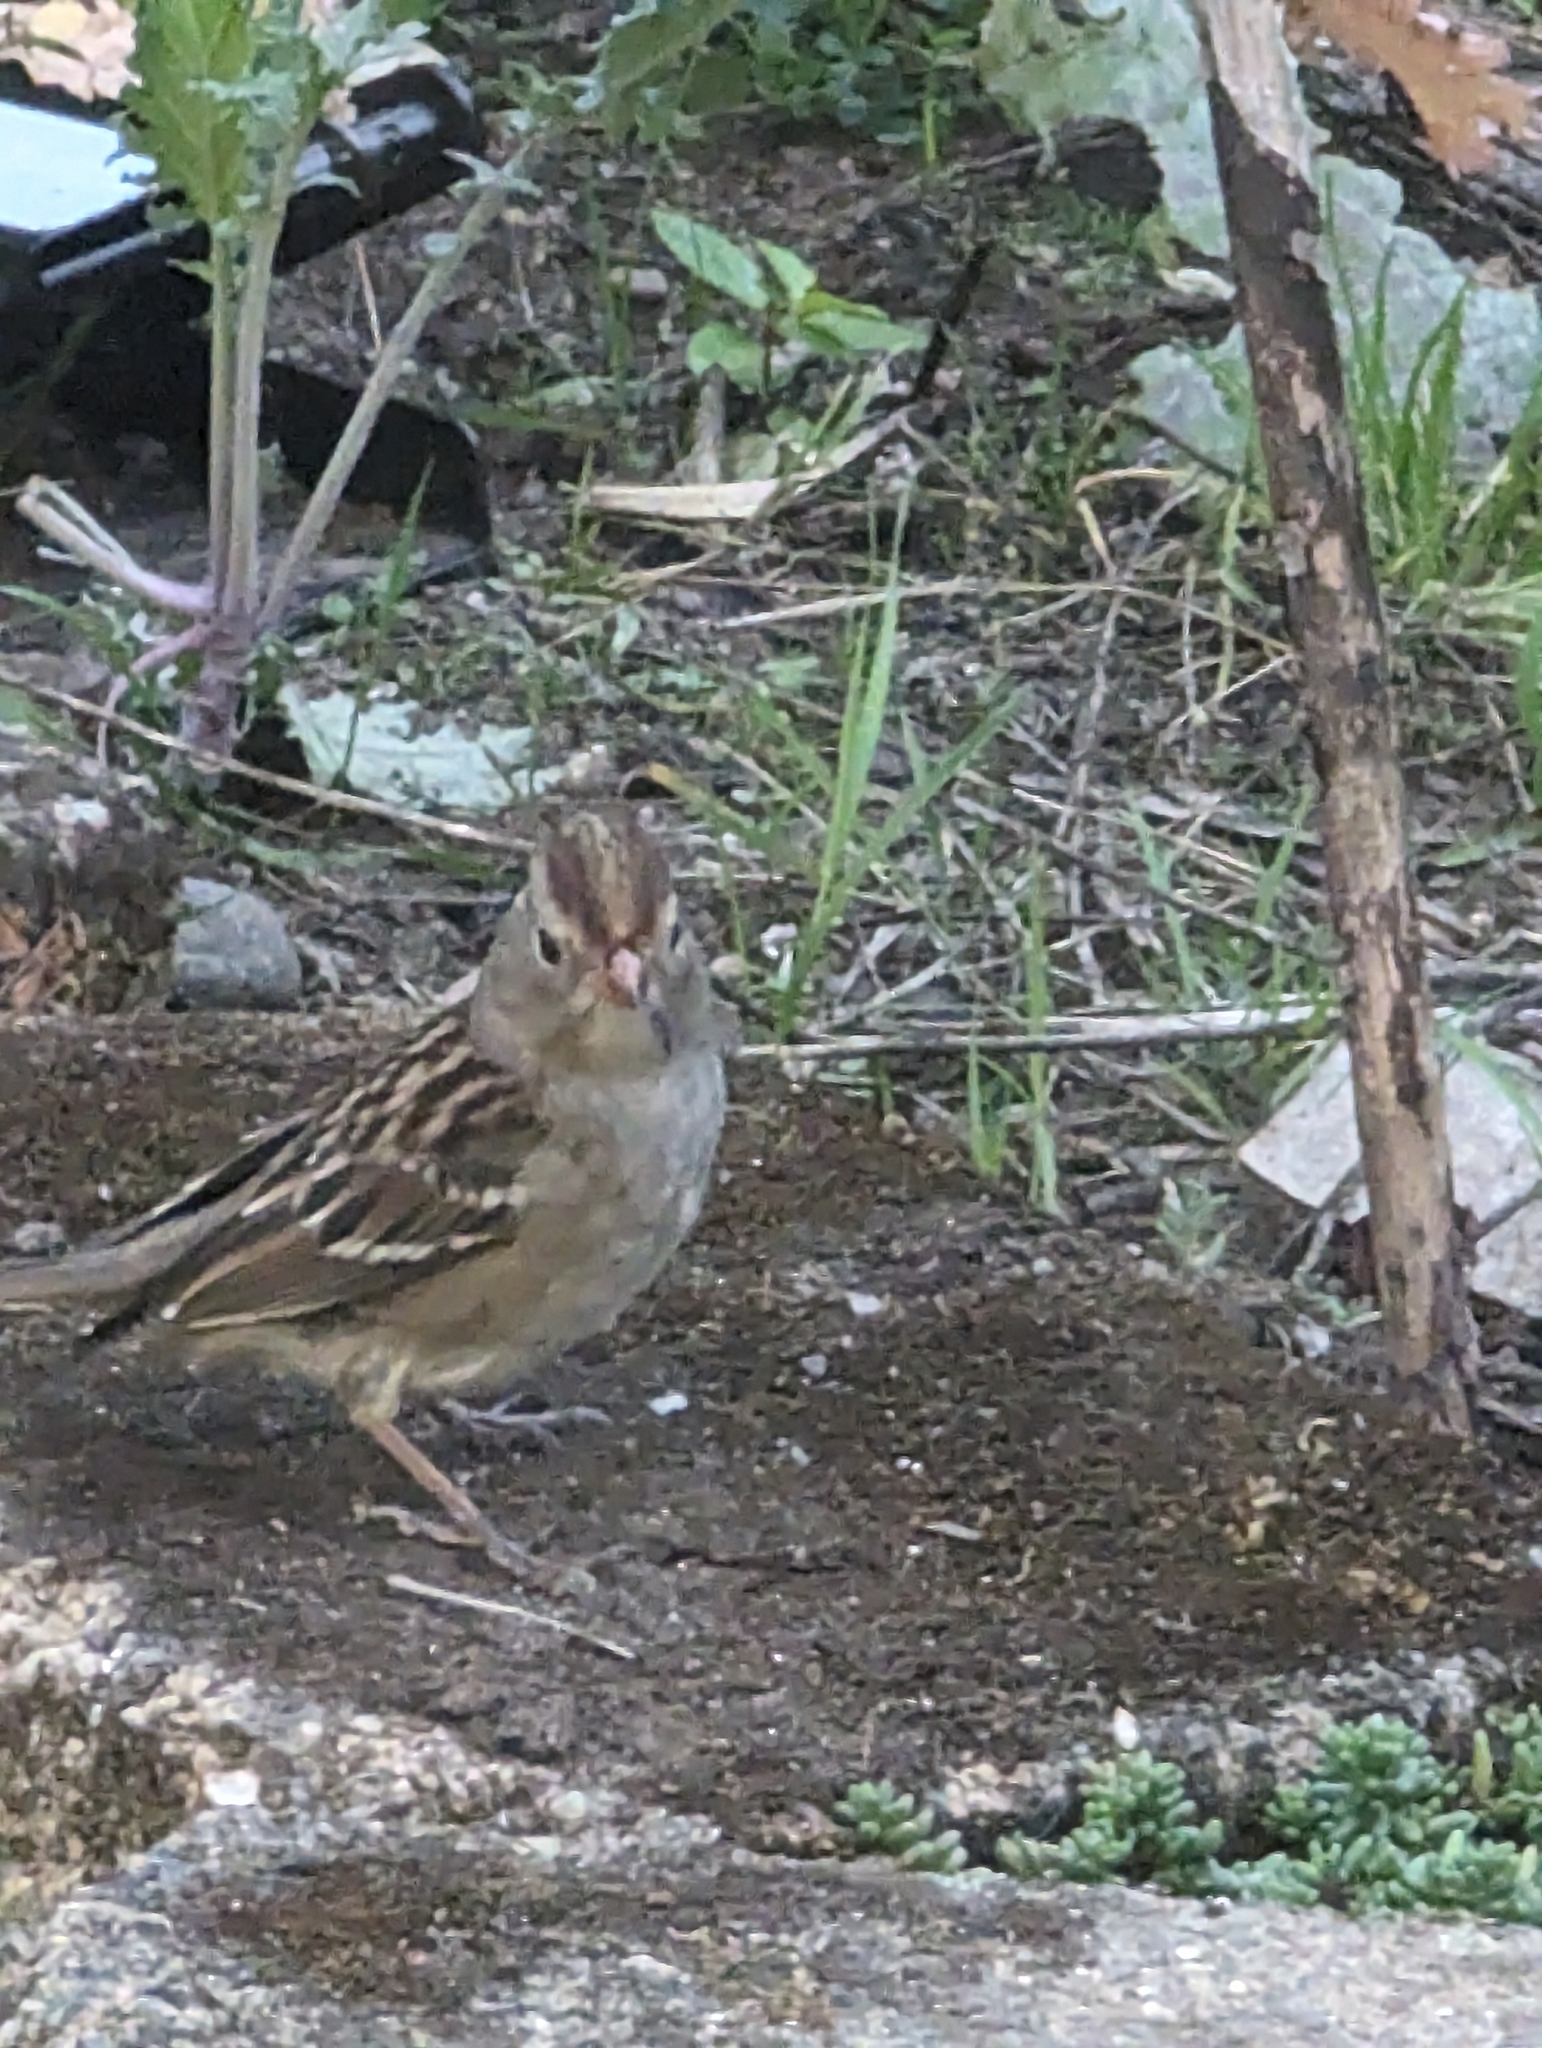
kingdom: Animalia
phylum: Chordata
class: Aves
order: Passeriformes
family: Passerellidae
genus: Zonotrichia
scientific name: Zonotrichia leucophrys
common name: White-crowned sparrow
